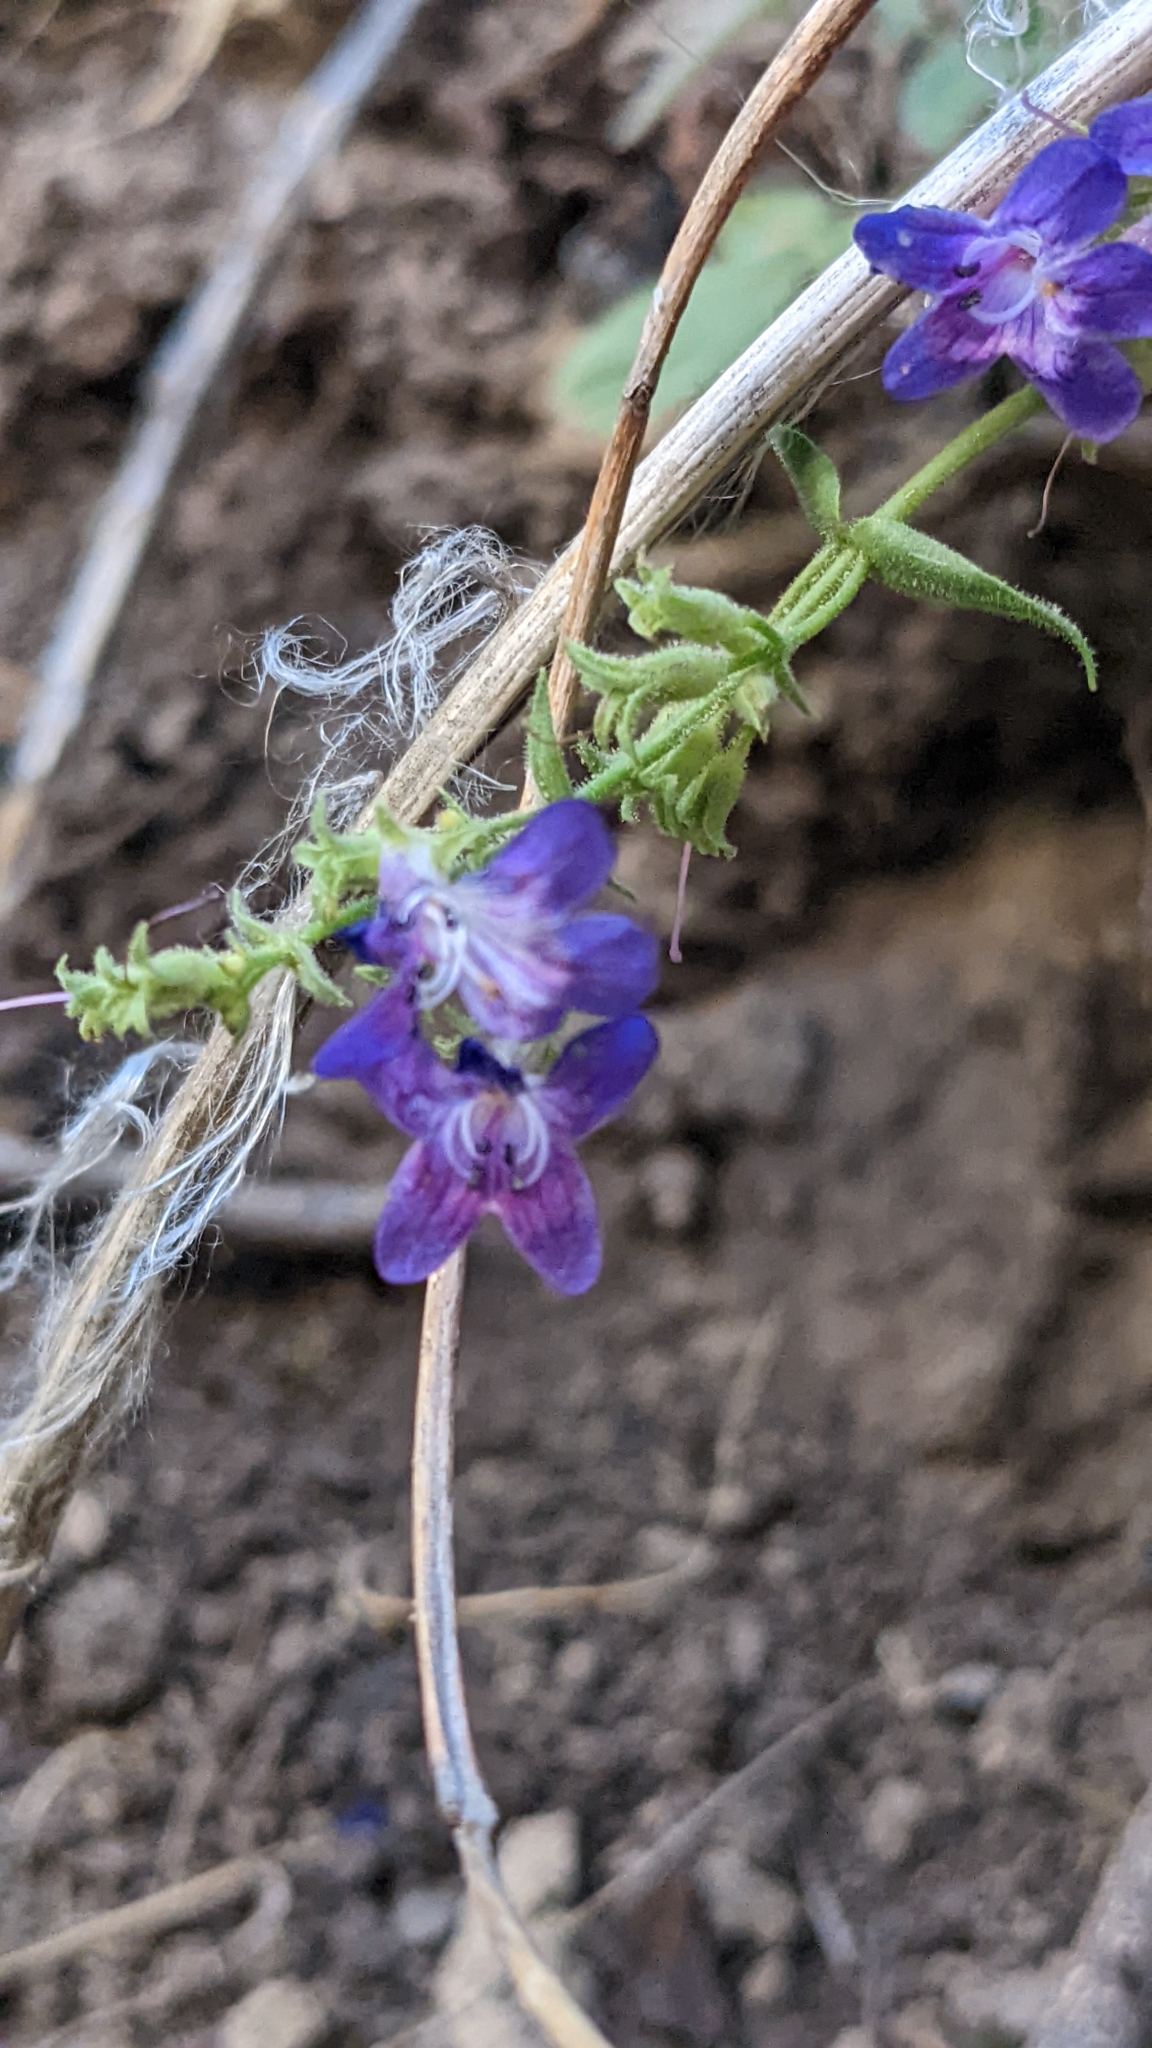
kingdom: Plantae
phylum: Tracheophyta
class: Magnoliopsida
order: Lamiales
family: Plantaginaceae
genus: Penstemon
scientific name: Penstemon humilis
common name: Low penstemon
